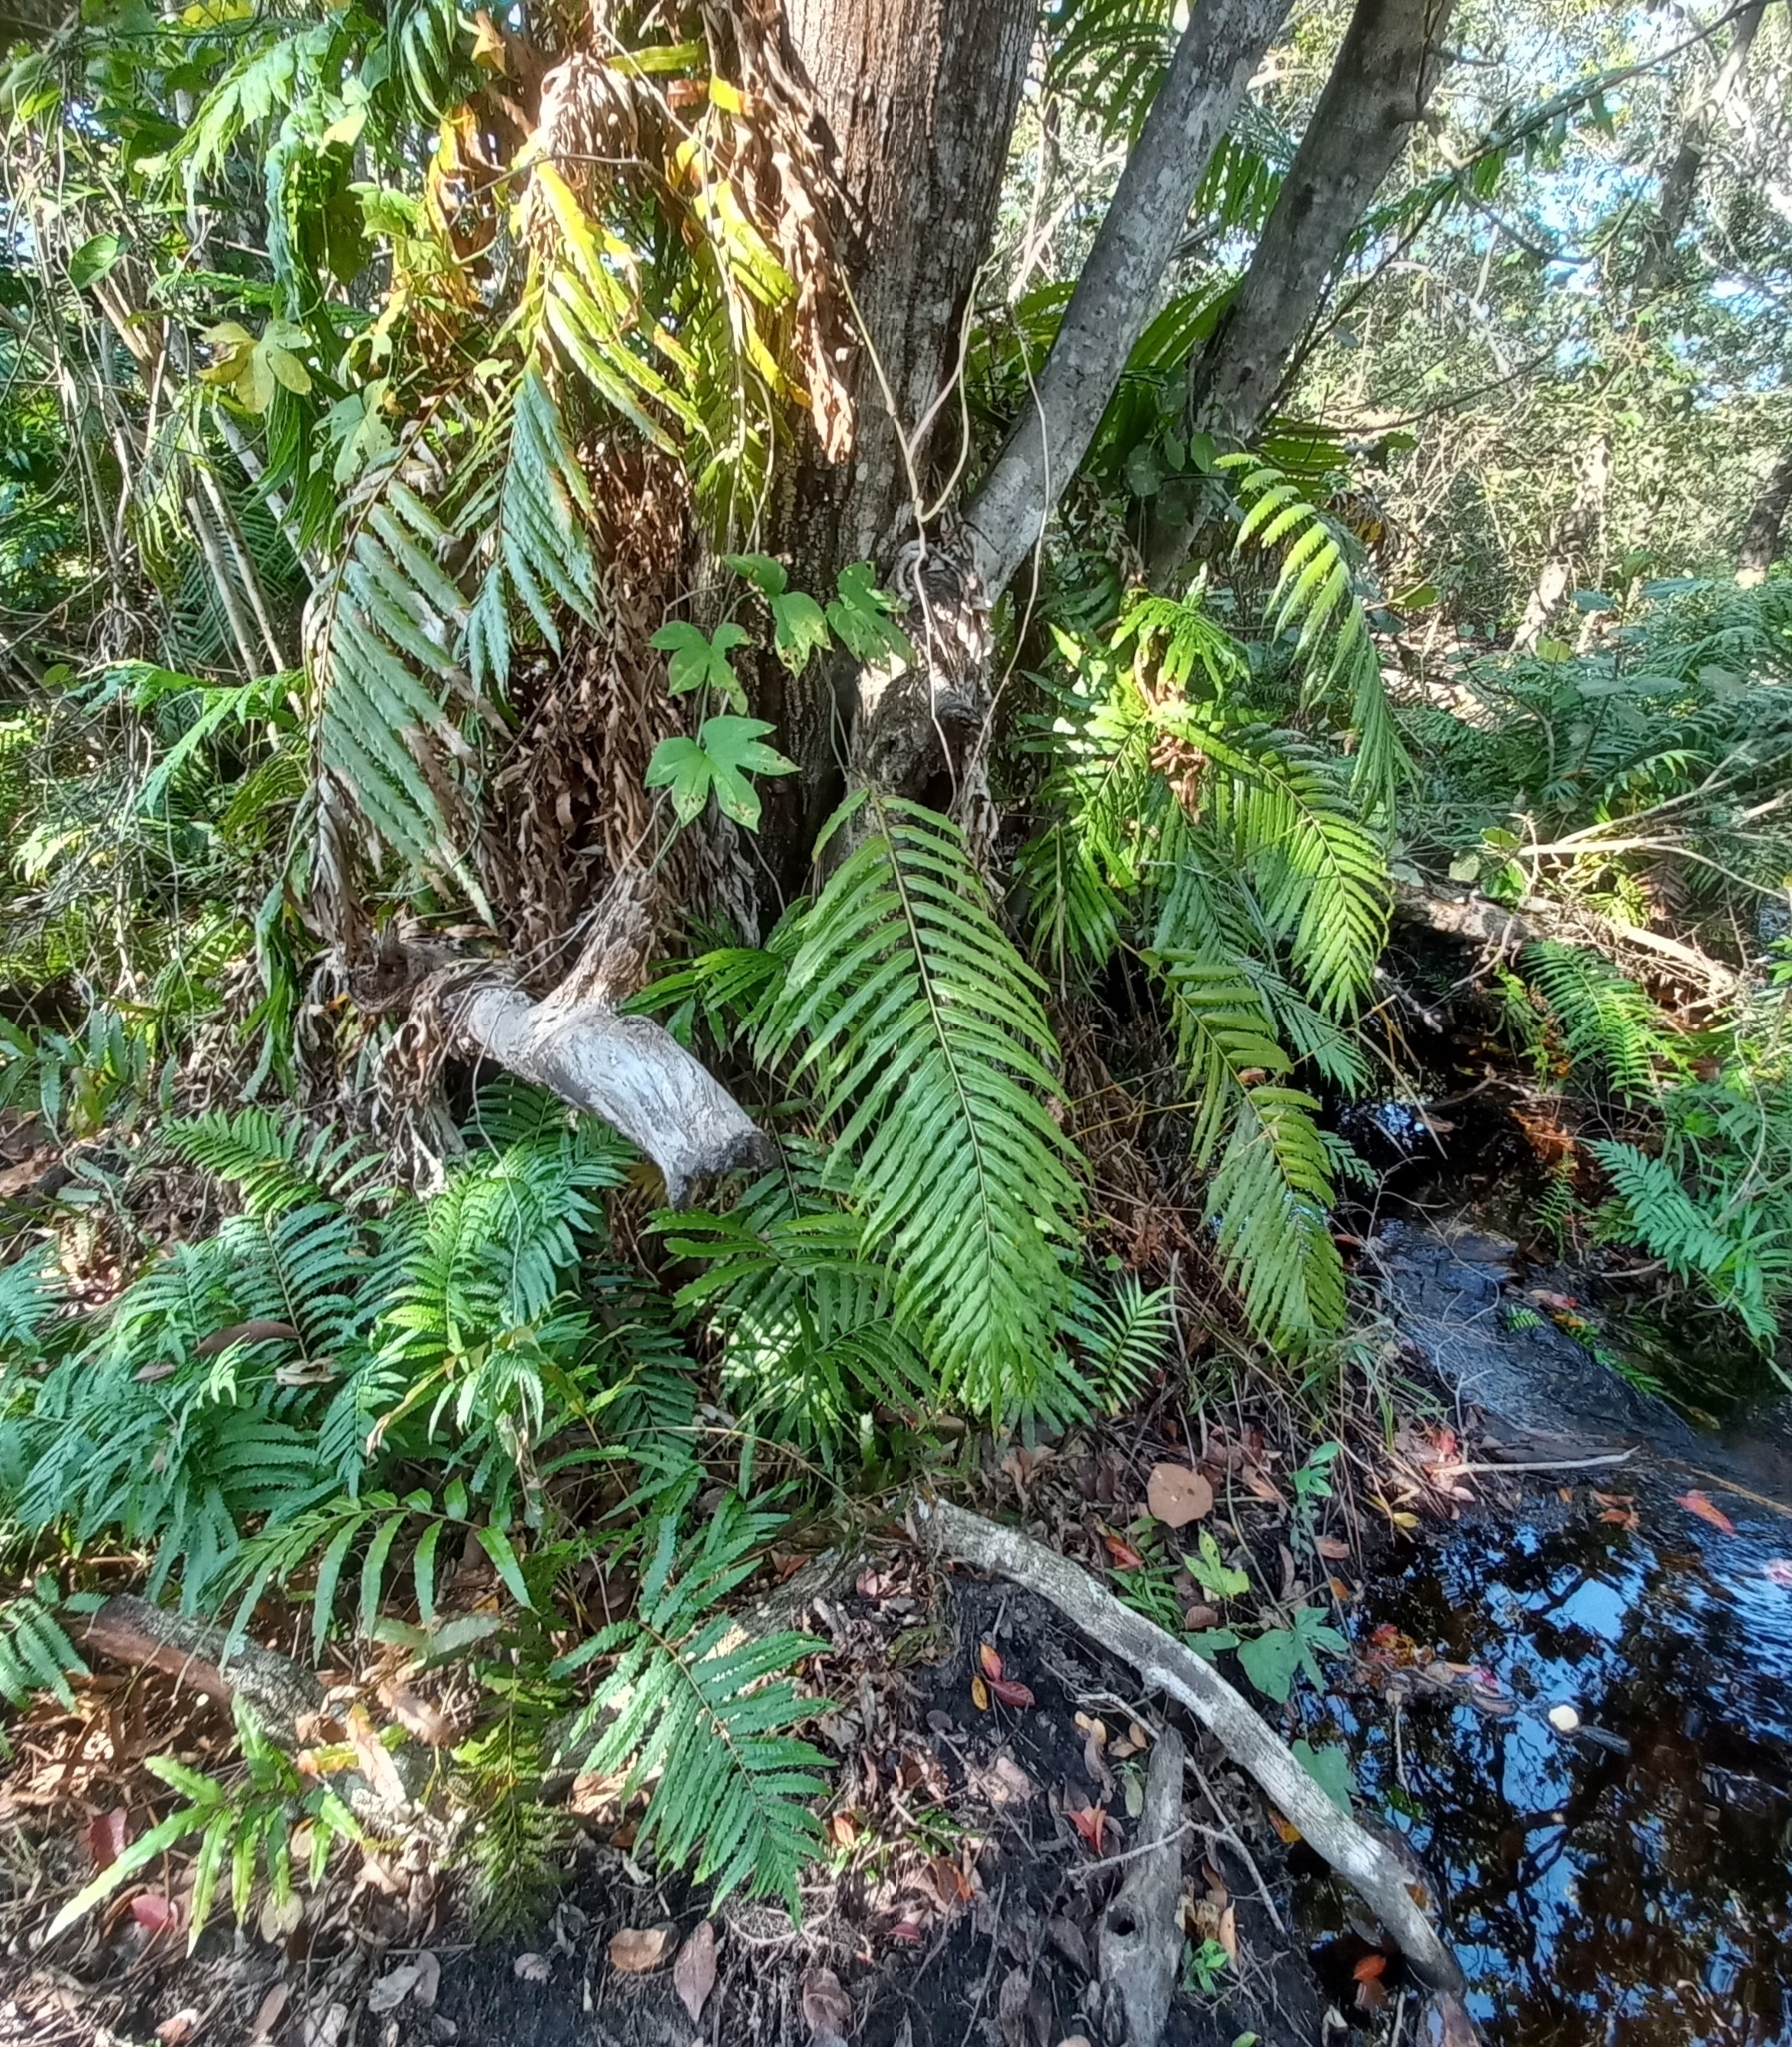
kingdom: Plantae
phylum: Tracheophyta
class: Polypodiopsida
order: Polypodiales
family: Blechnaceae
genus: Stenochlaena
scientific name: Stenochlaena tenuifolia
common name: Giant vine fern
